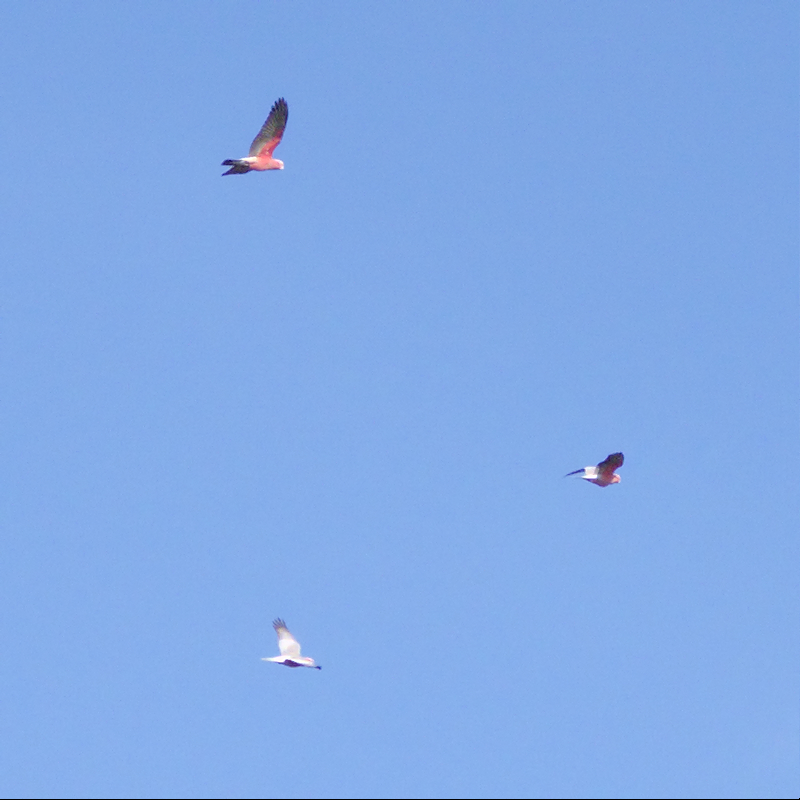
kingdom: Animalia
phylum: Chordata
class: Aves
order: Psittaciformes
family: Psittacidae
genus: Eolophus
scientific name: Eolophus roseicapilla
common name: Galah
